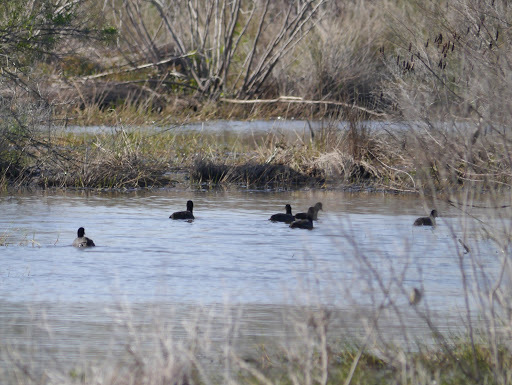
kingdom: Animalia
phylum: Chordata
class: Aves
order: Gruiformes
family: Rallidae
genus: Fulica
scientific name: Fulica americana
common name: American coot
